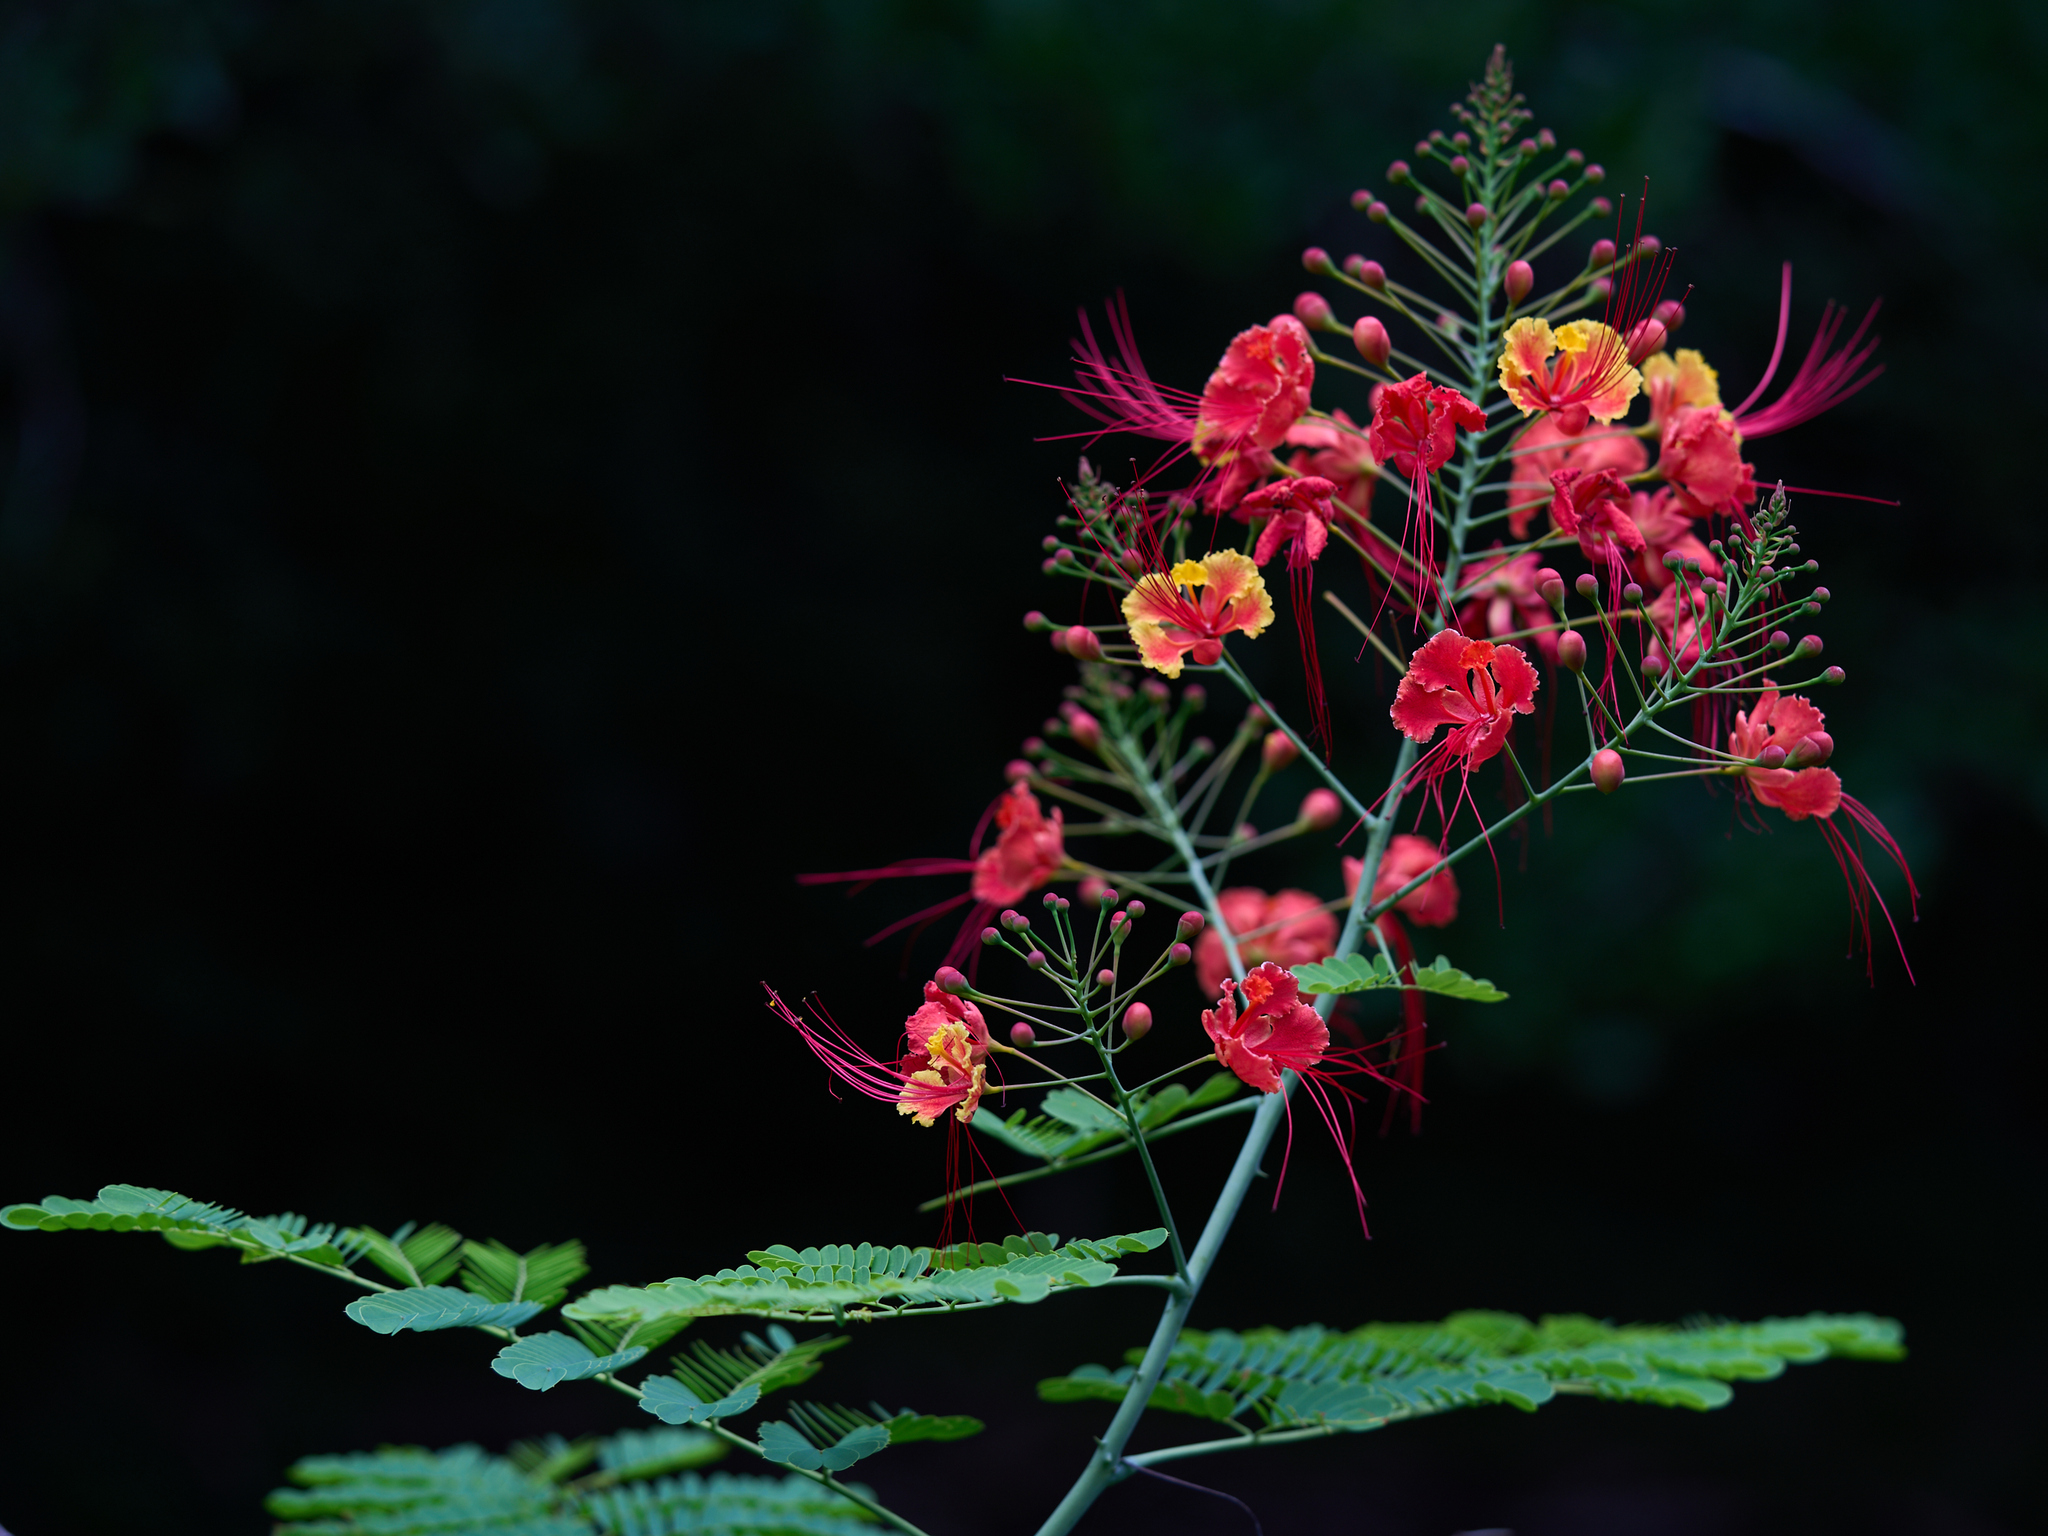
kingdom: Plantae
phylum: Tracheophyta
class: Magnoliopsida
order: Fabales
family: Fabaceae
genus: Caesalpinia
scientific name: Caesalpinia pulcherrima
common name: Pride-of-barbados
